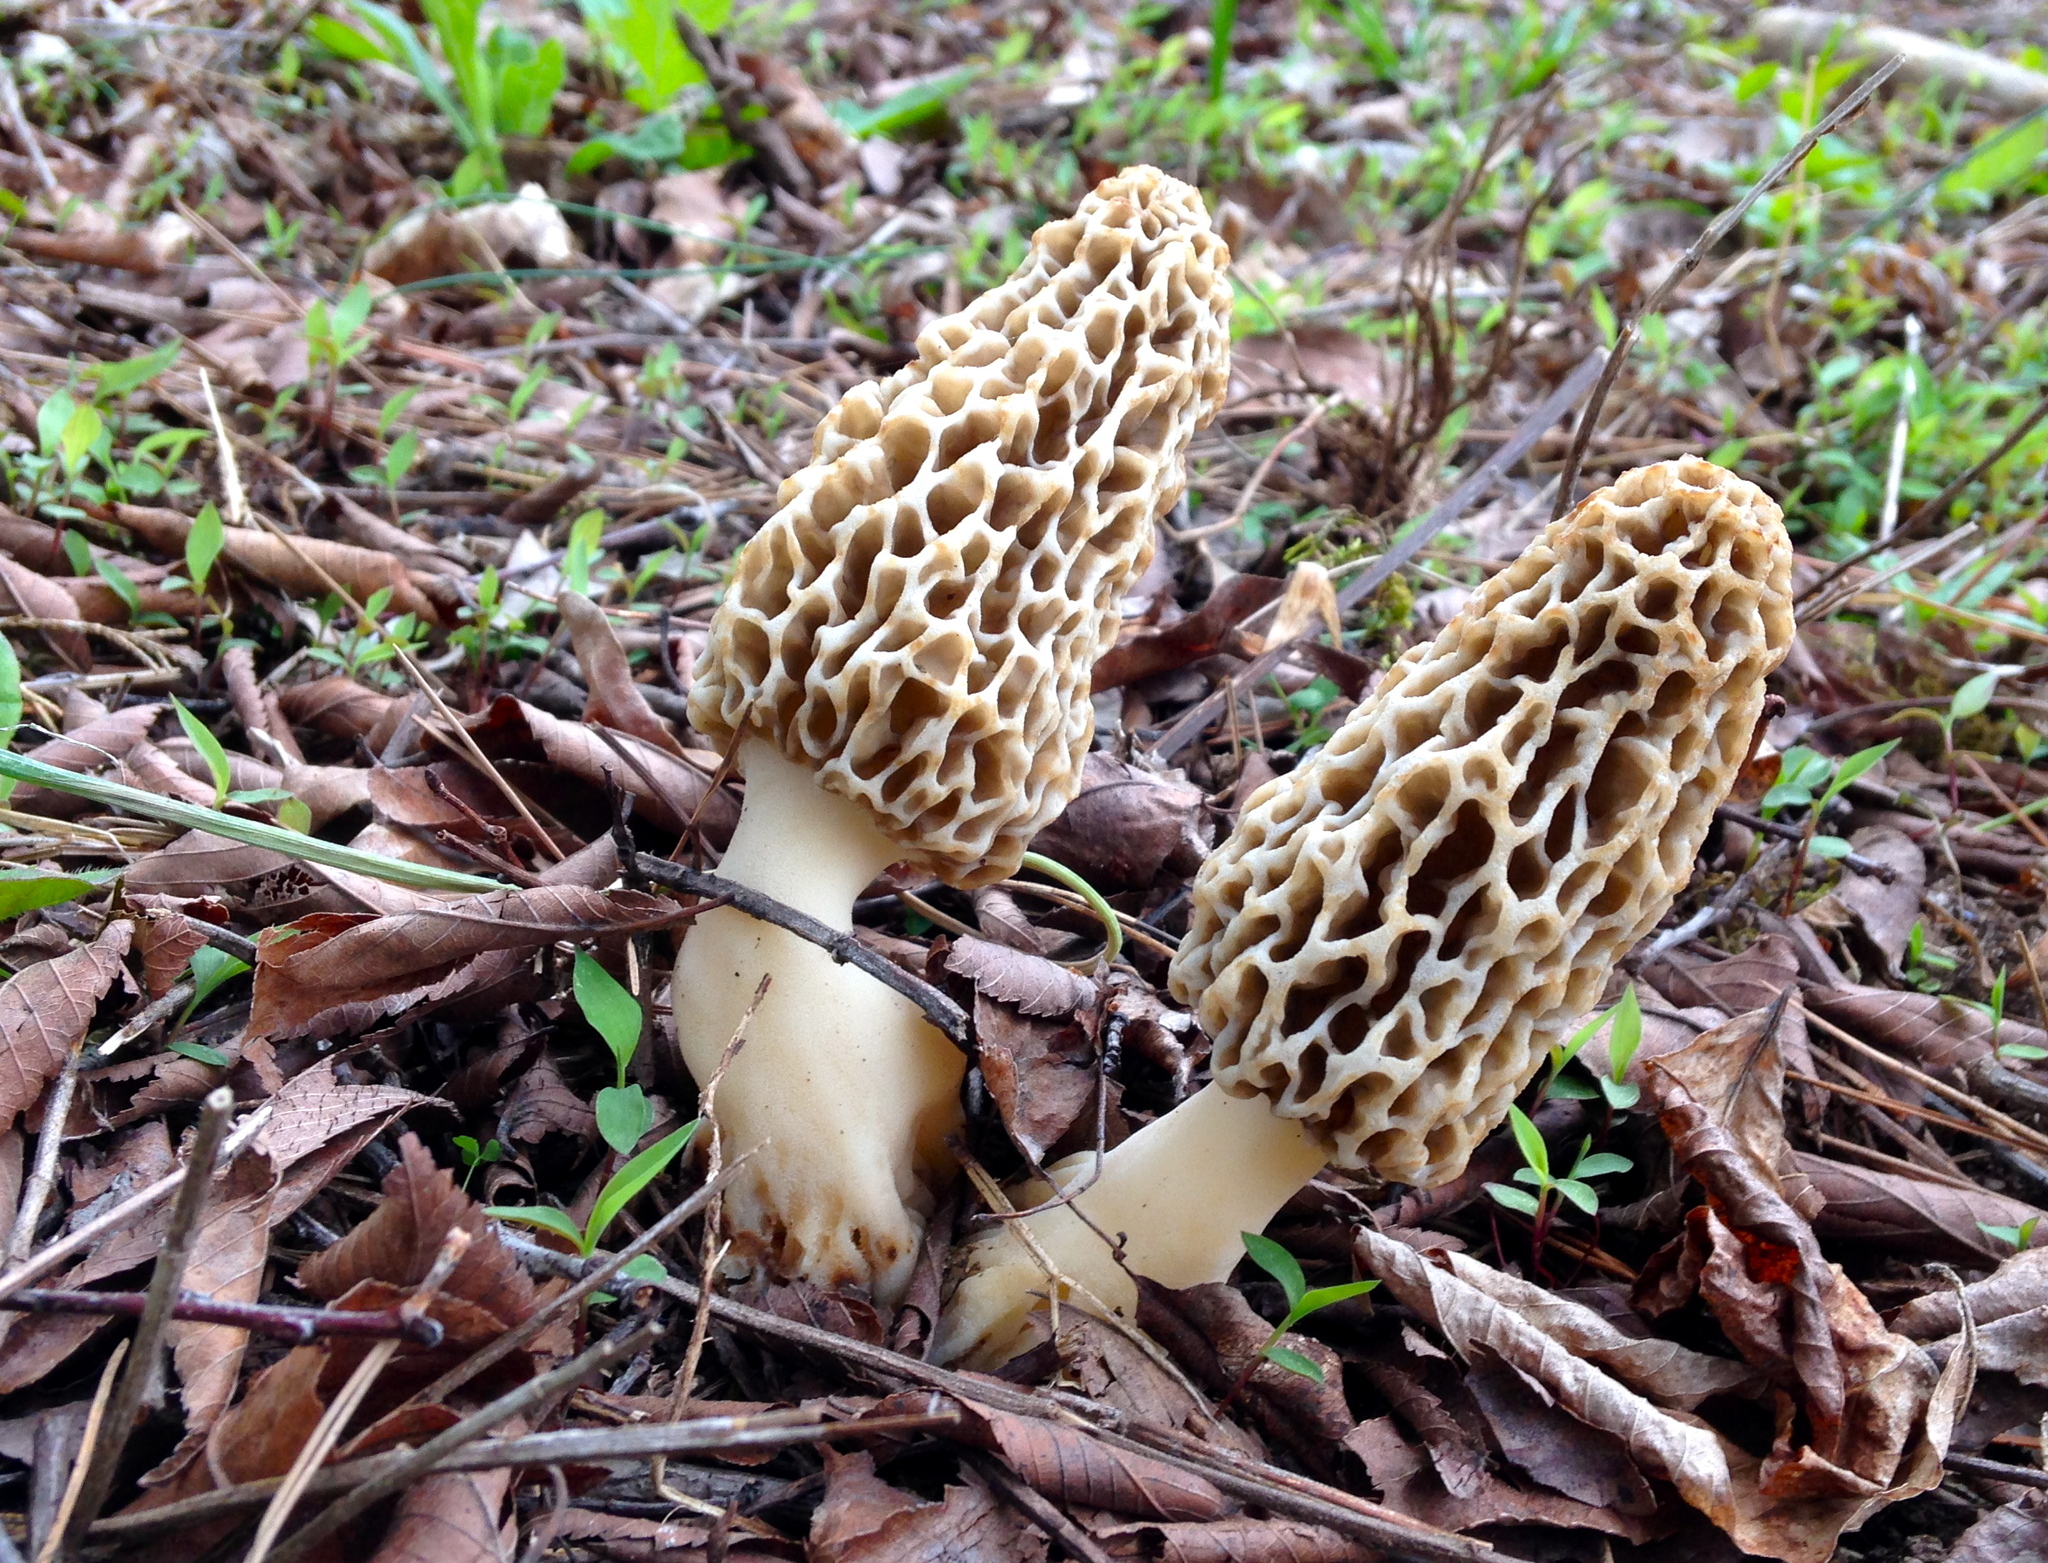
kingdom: Fungi
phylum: Ascomycota
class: Pezizomycetes
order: Pezizales
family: Morchellaceae
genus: Morchella
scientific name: Morchella americana
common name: White morel
